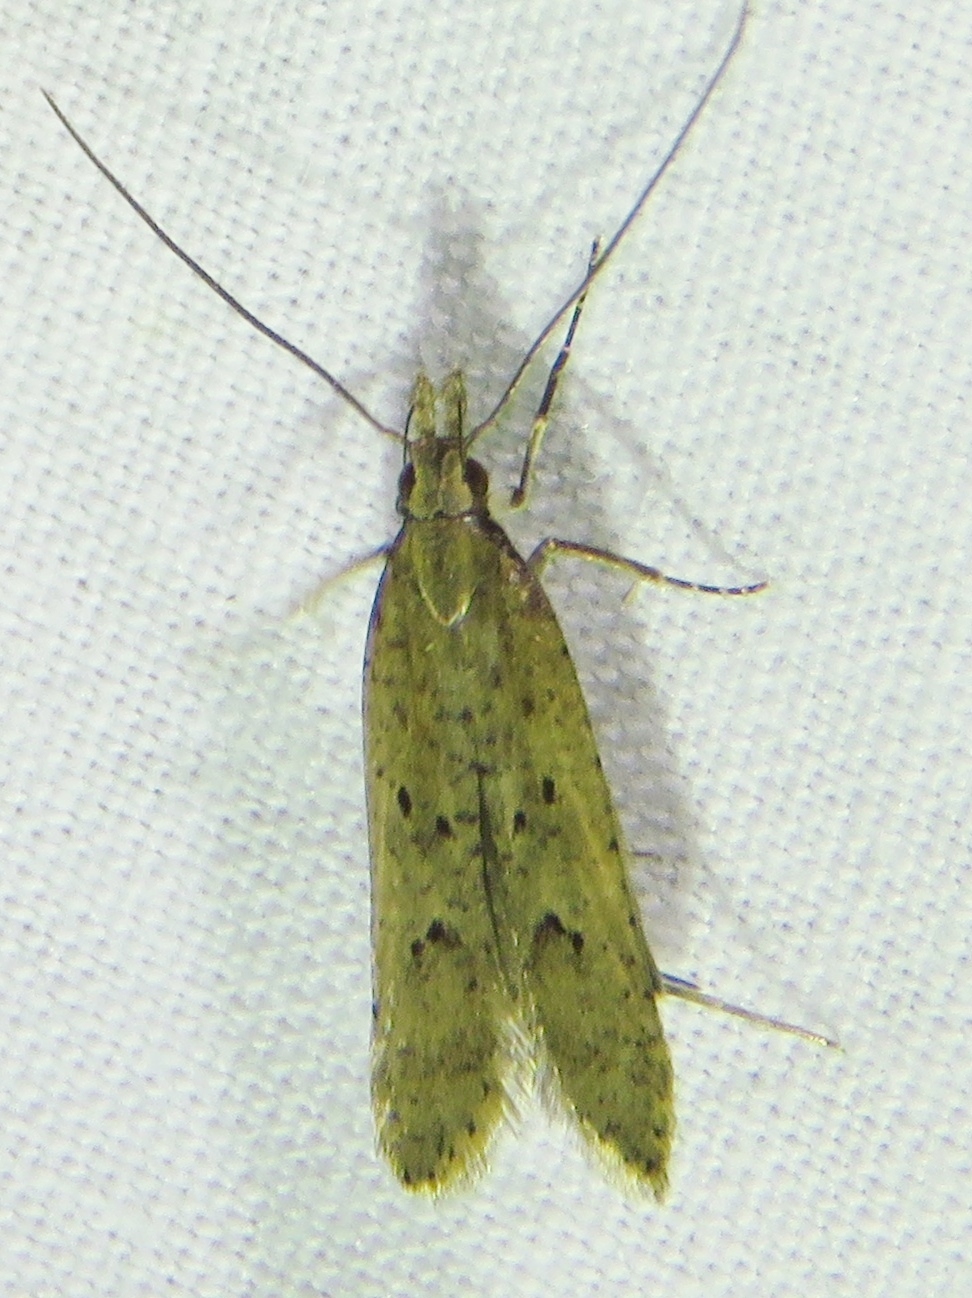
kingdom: Animalia
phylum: Arthropoda
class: Insecta
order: Lepidoptera
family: Gelechiidae
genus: Dichomeris
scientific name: Dichomeris ligulella
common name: Moth
